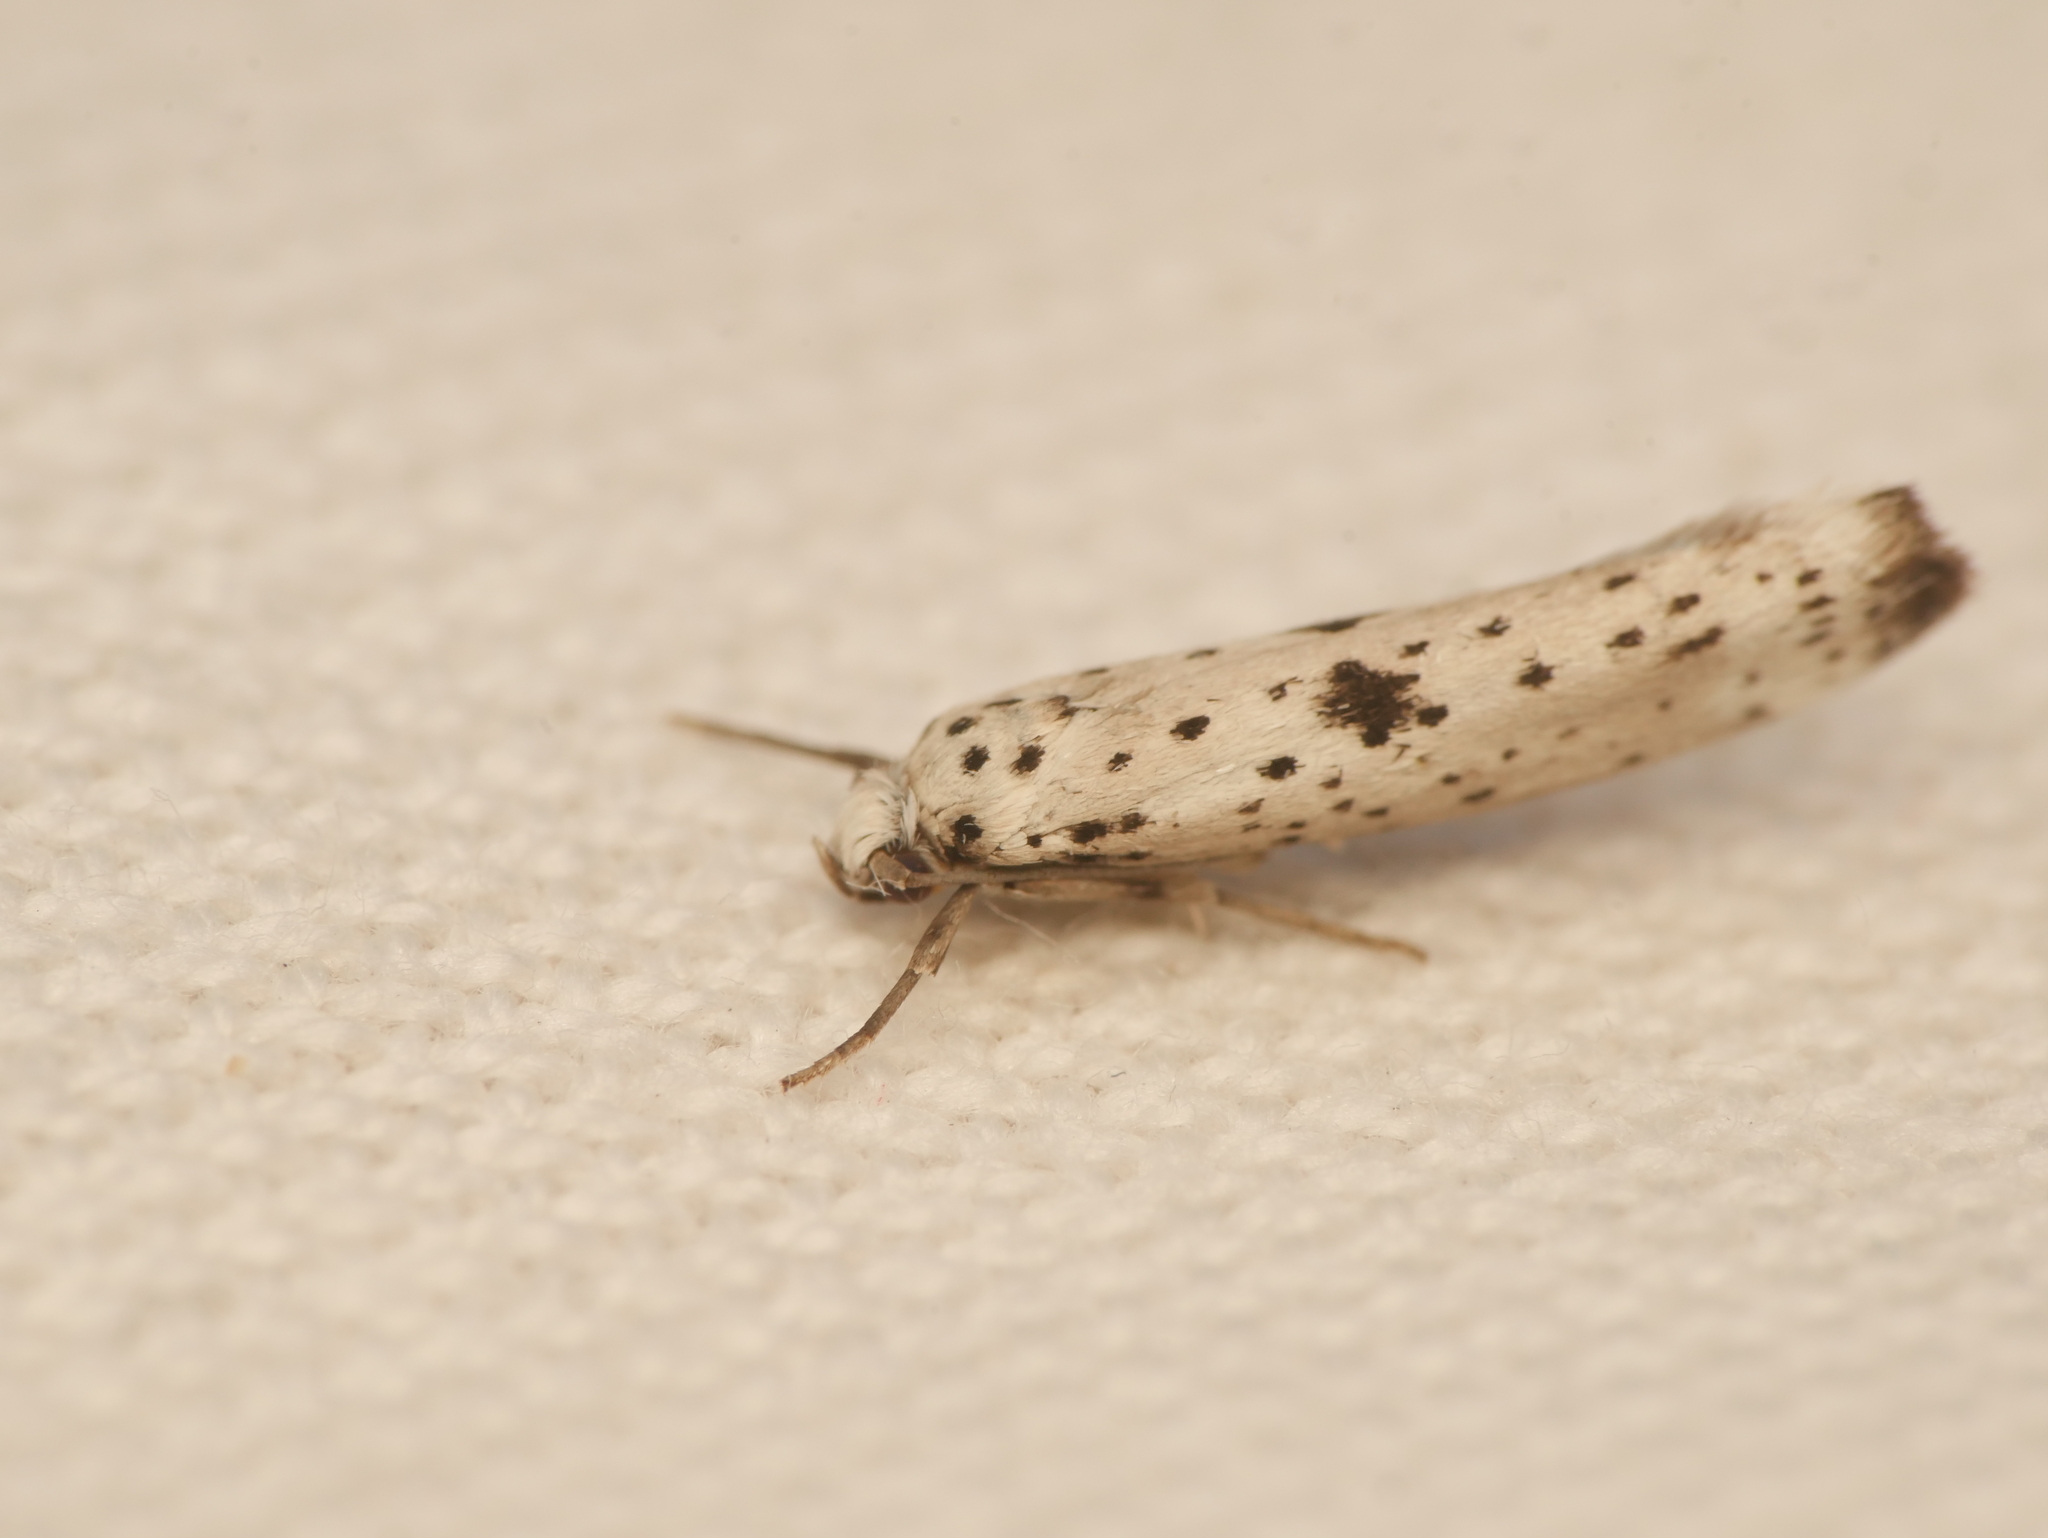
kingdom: Animalia
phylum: Arthropoda
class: Insecta
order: Lepidoptera
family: Yponomeutidae
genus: Yponomeuta
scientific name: Yponomeuta plumbella
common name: Black-tipped ermine
